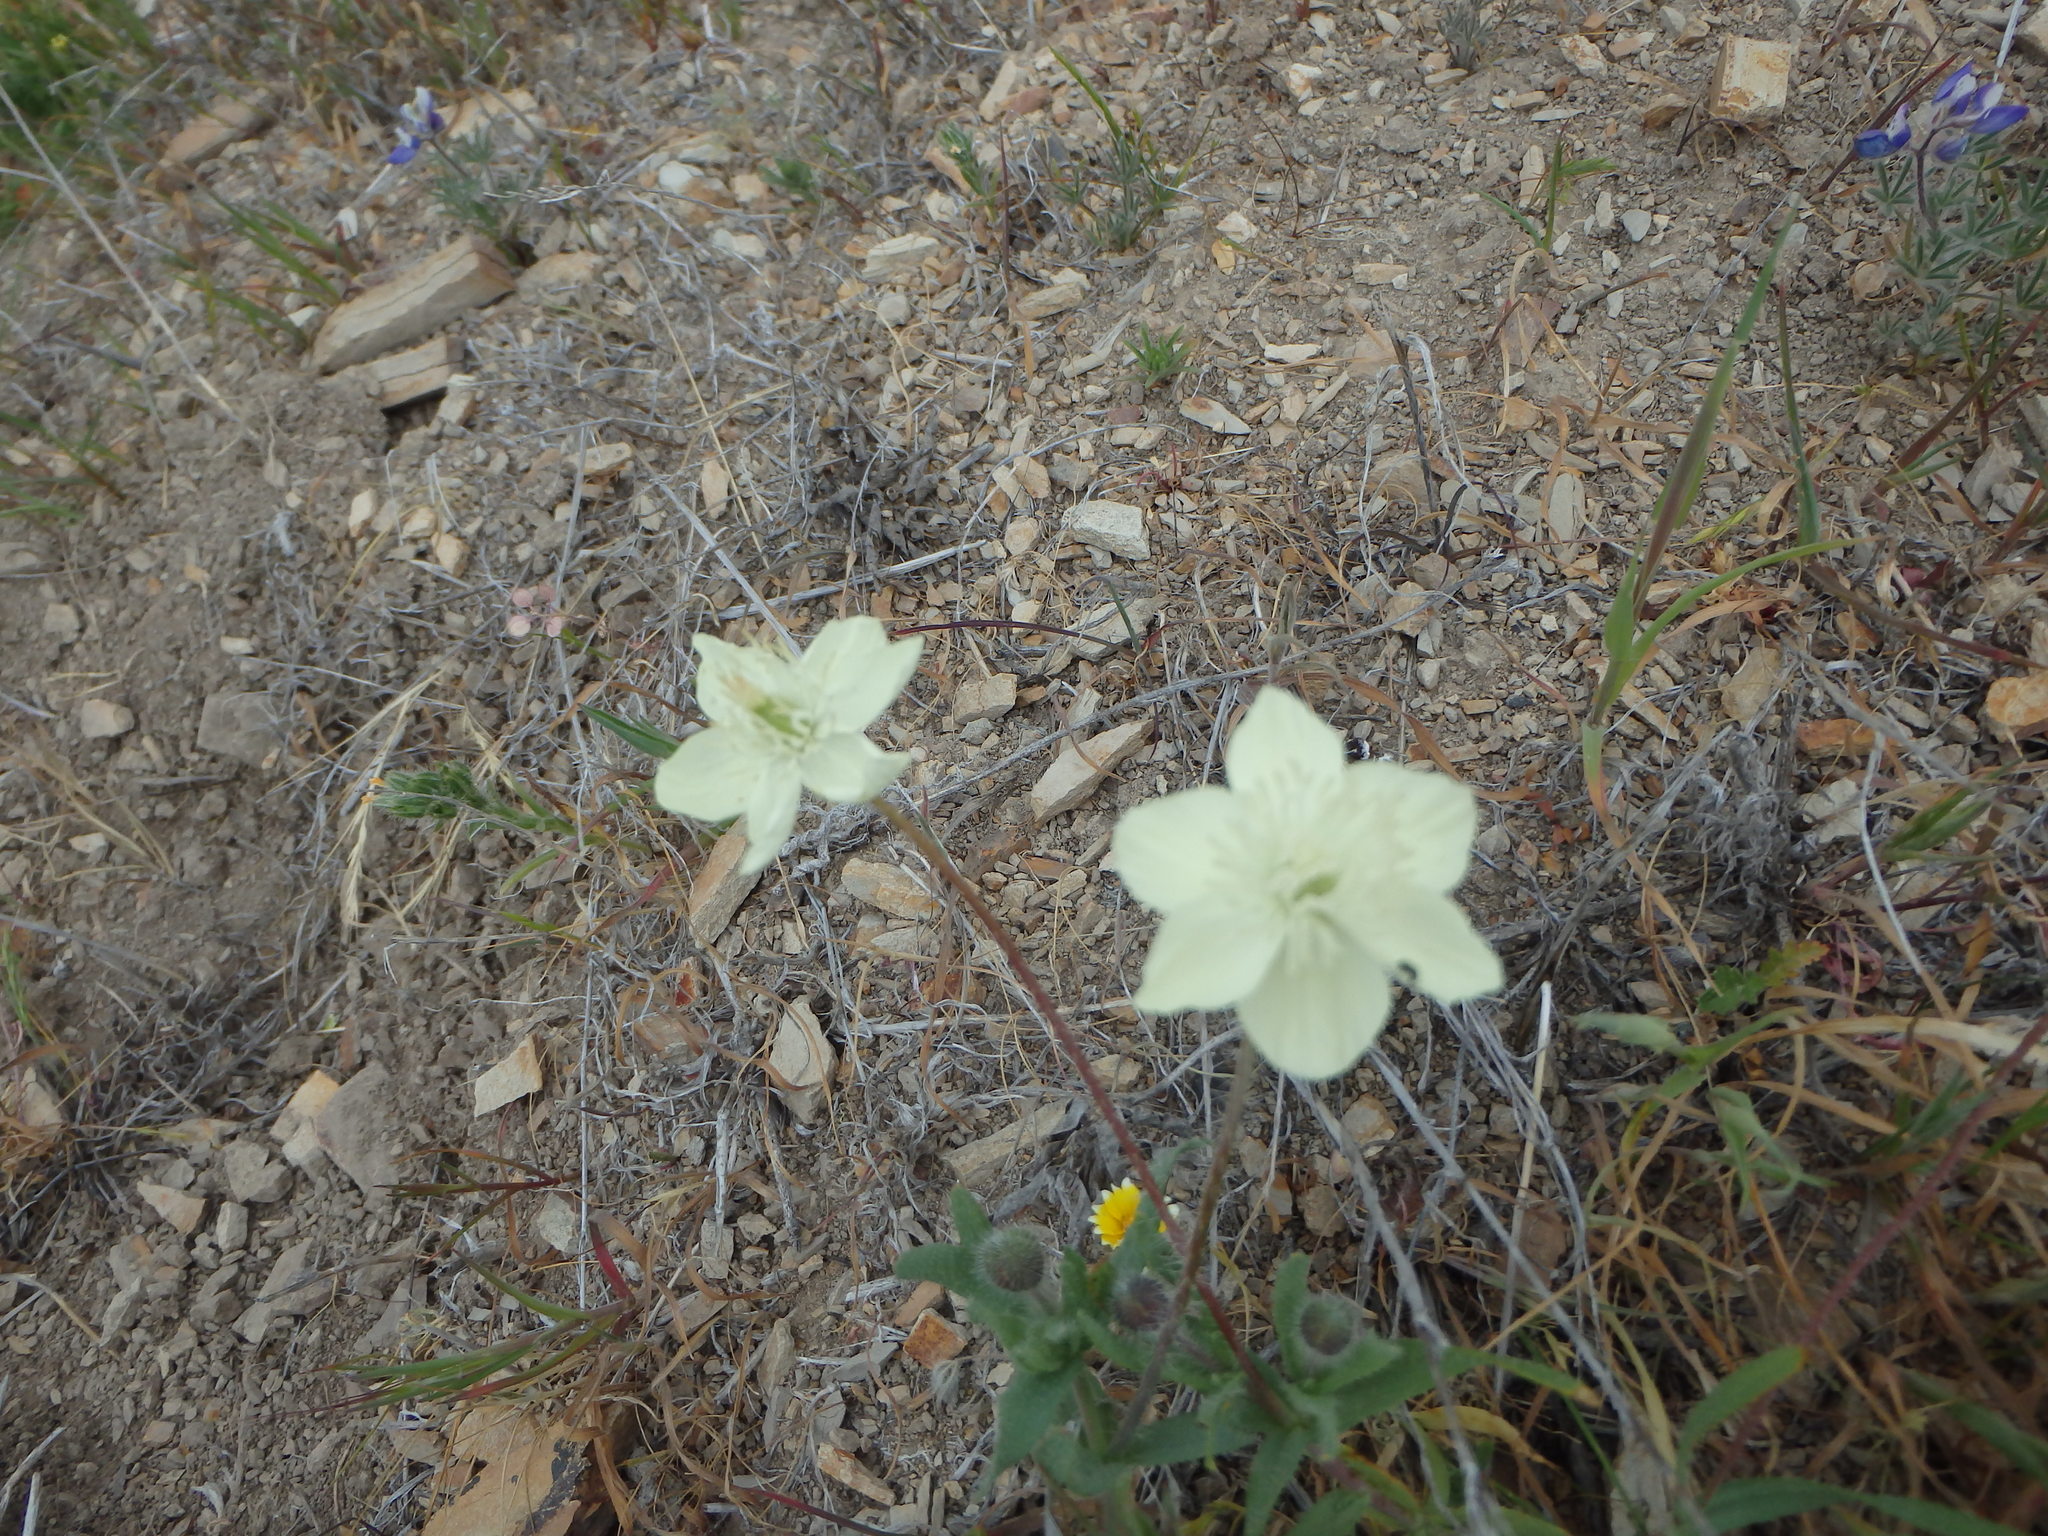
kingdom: Plantae
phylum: Tracheophyta
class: Magnoliopsida
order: Ranunculales
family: Papaveraceae
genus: Platystemon
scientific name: Platystemon californicus
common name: Cream-cups
